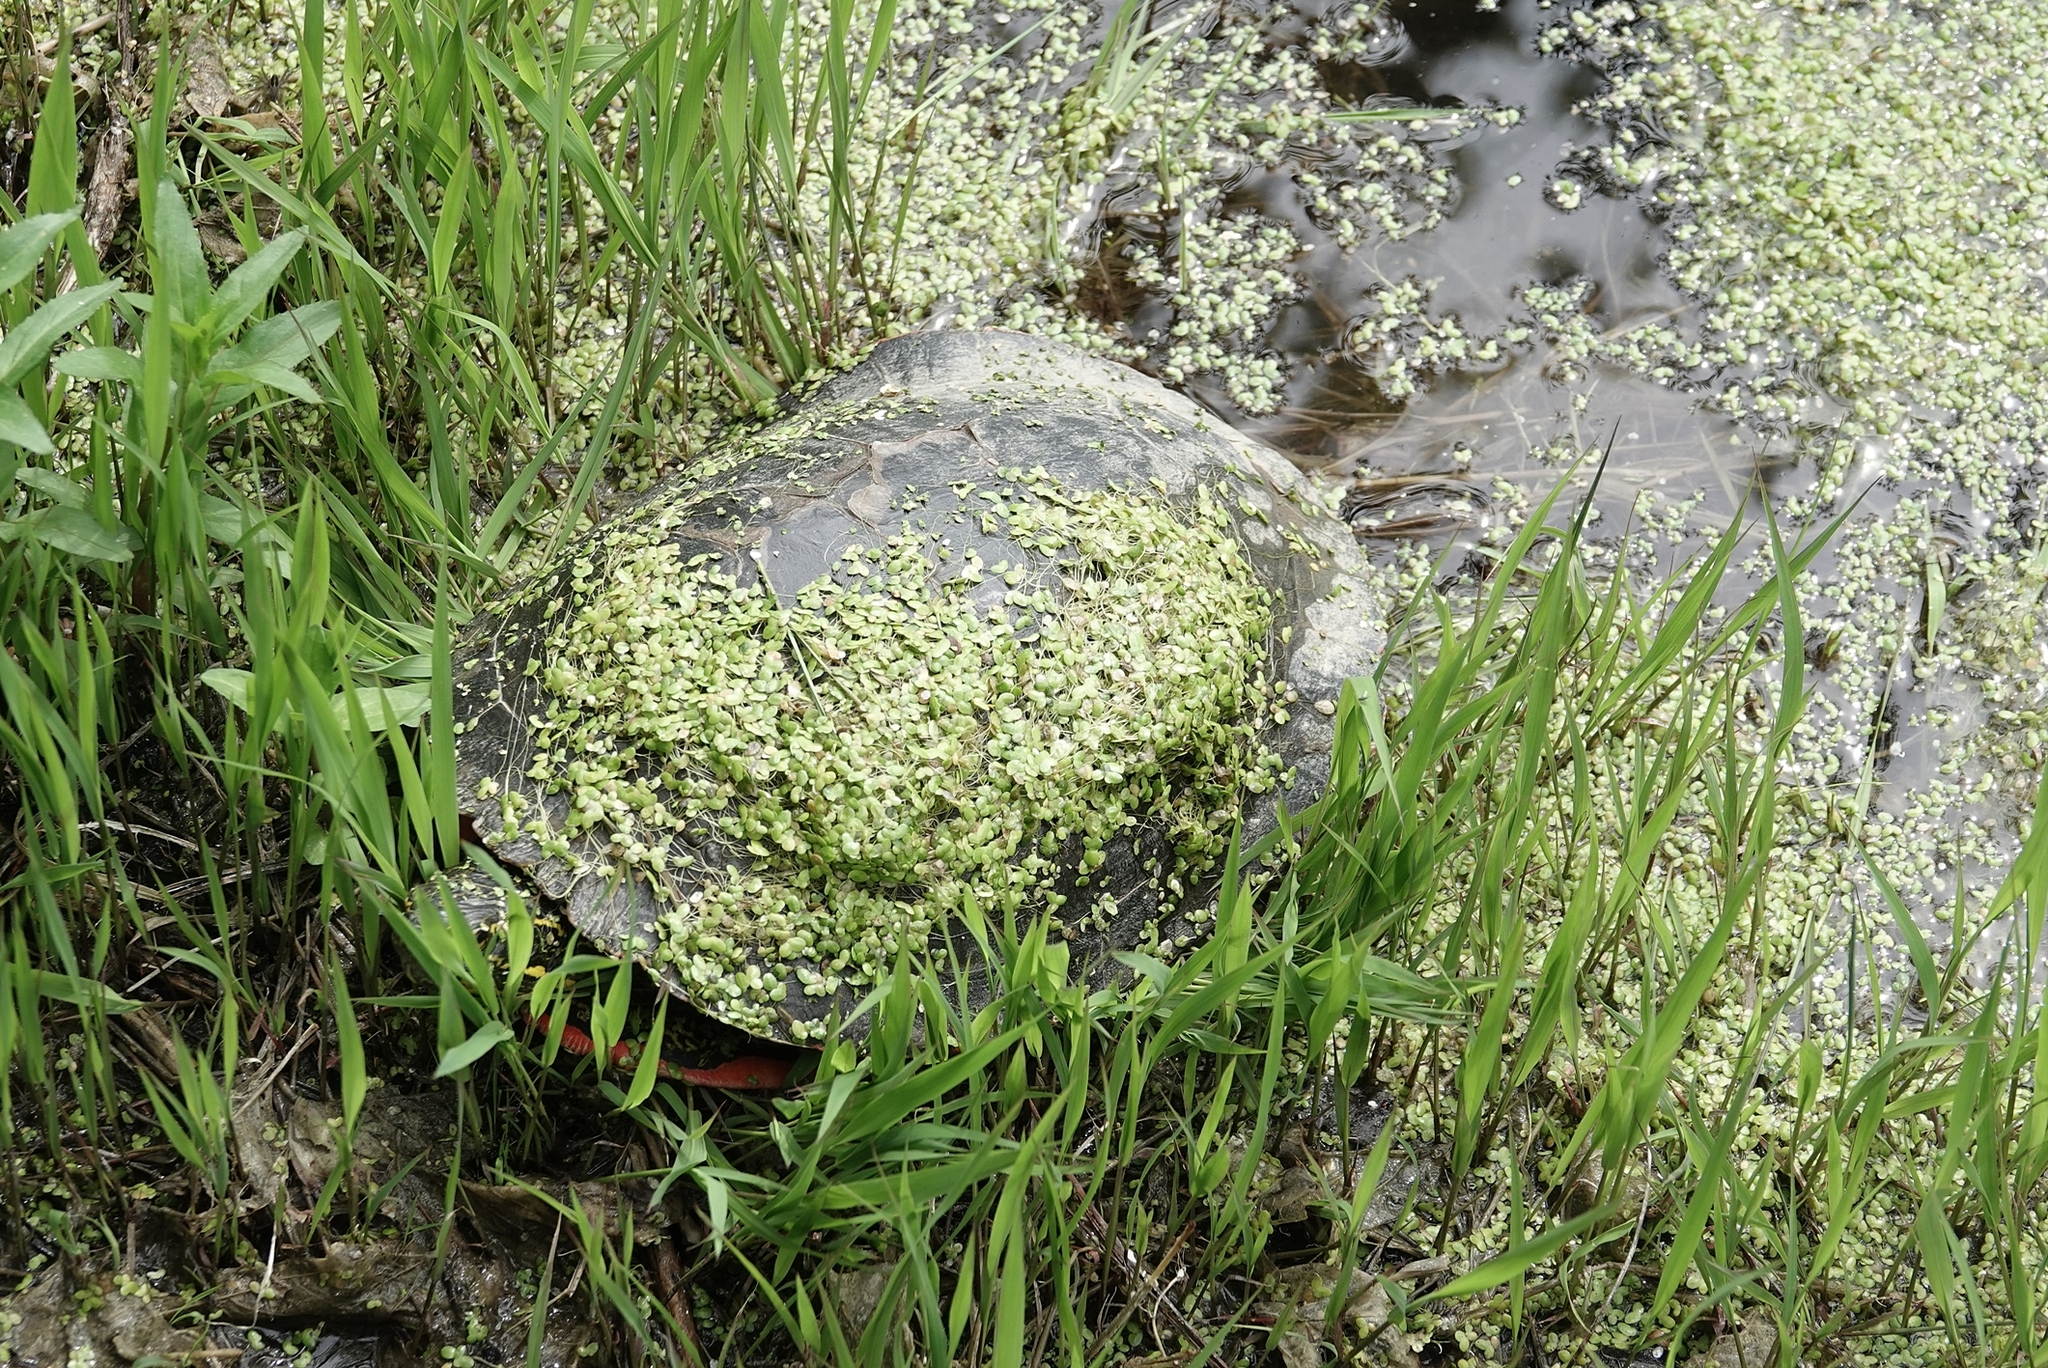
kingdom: Animalia
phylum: Chordata
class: Testudines
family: Emydidae
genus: Chrysemys
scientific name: Chrysemys picta
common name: Painted turtle
